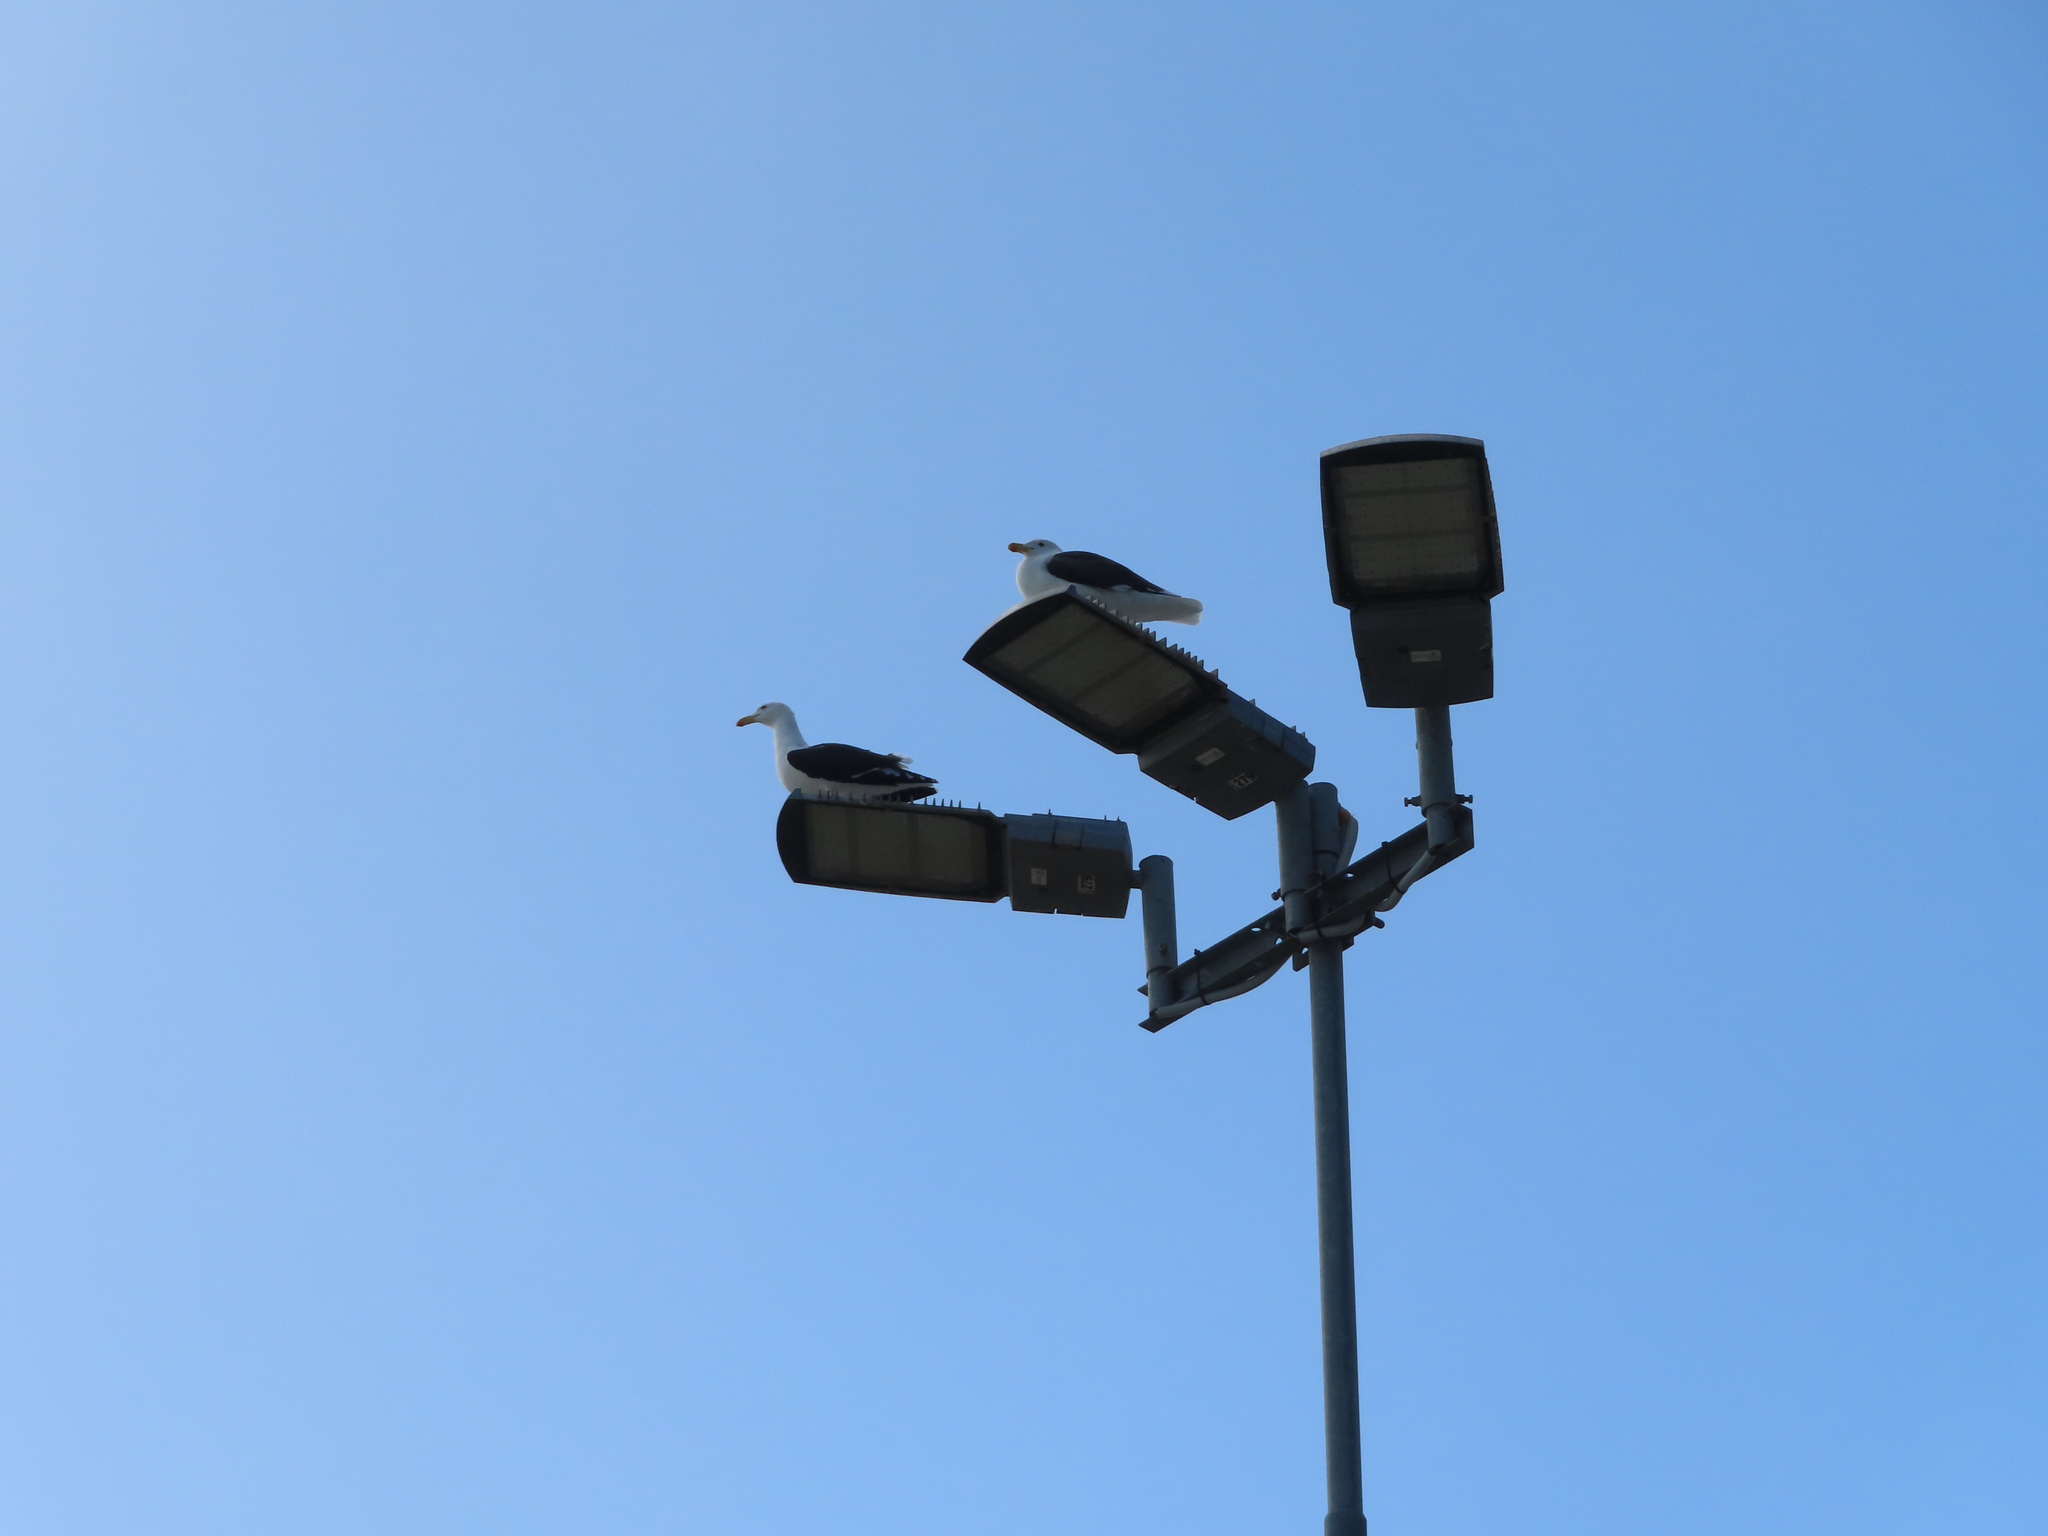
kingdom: Animalia
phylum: Chordata
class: Aves
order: Charadriiformes
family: Laridae
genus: Larus
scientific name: Larus dominicanus
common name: Kelp gull
